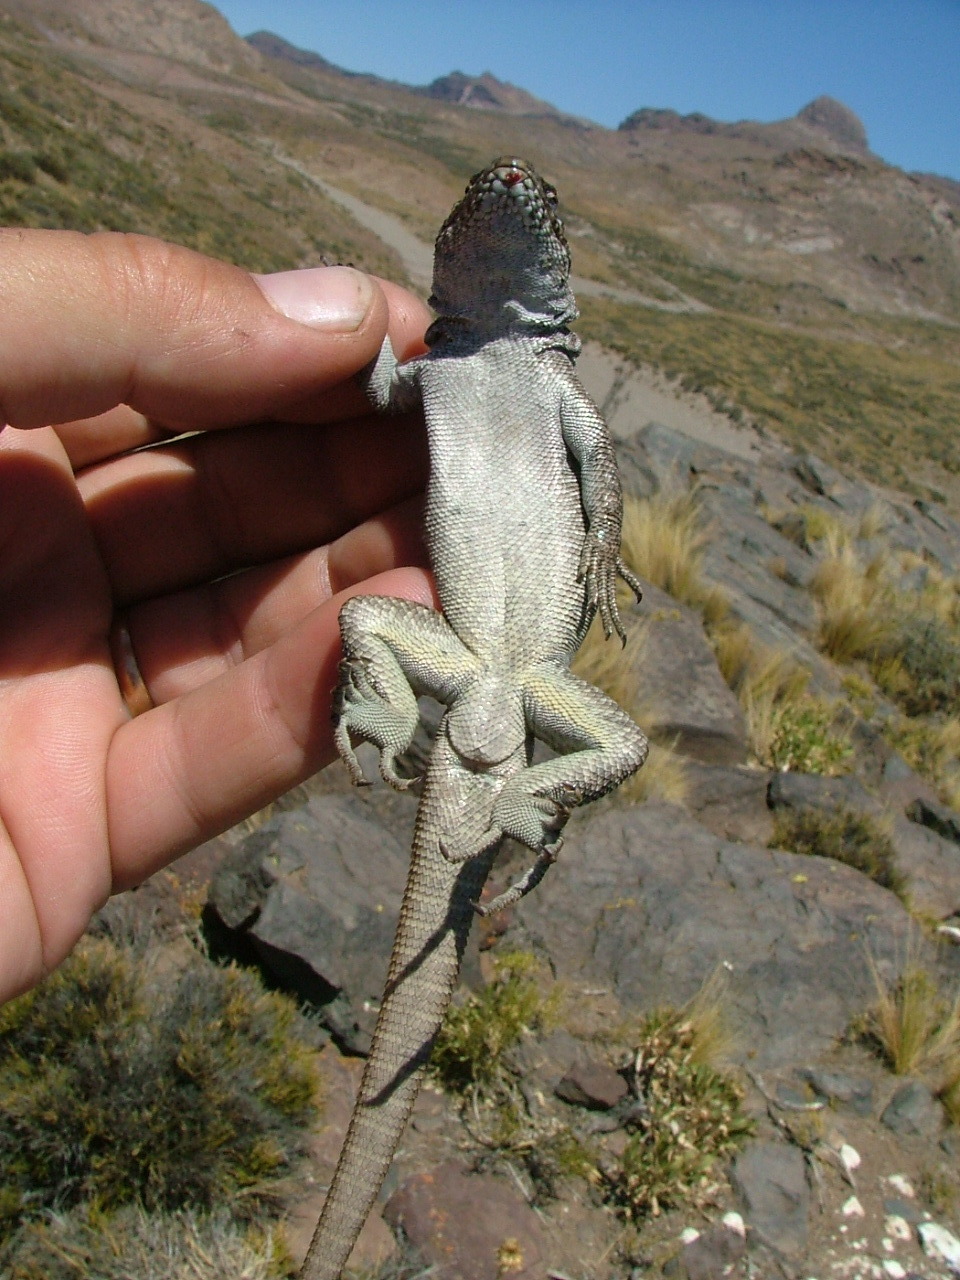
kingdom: Animalia
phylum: Chordata
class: Squamata
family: Liolaemidae
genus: Liolaemus
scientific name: Liolaemus austromendocinus
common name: Austromendocino tree iguana
